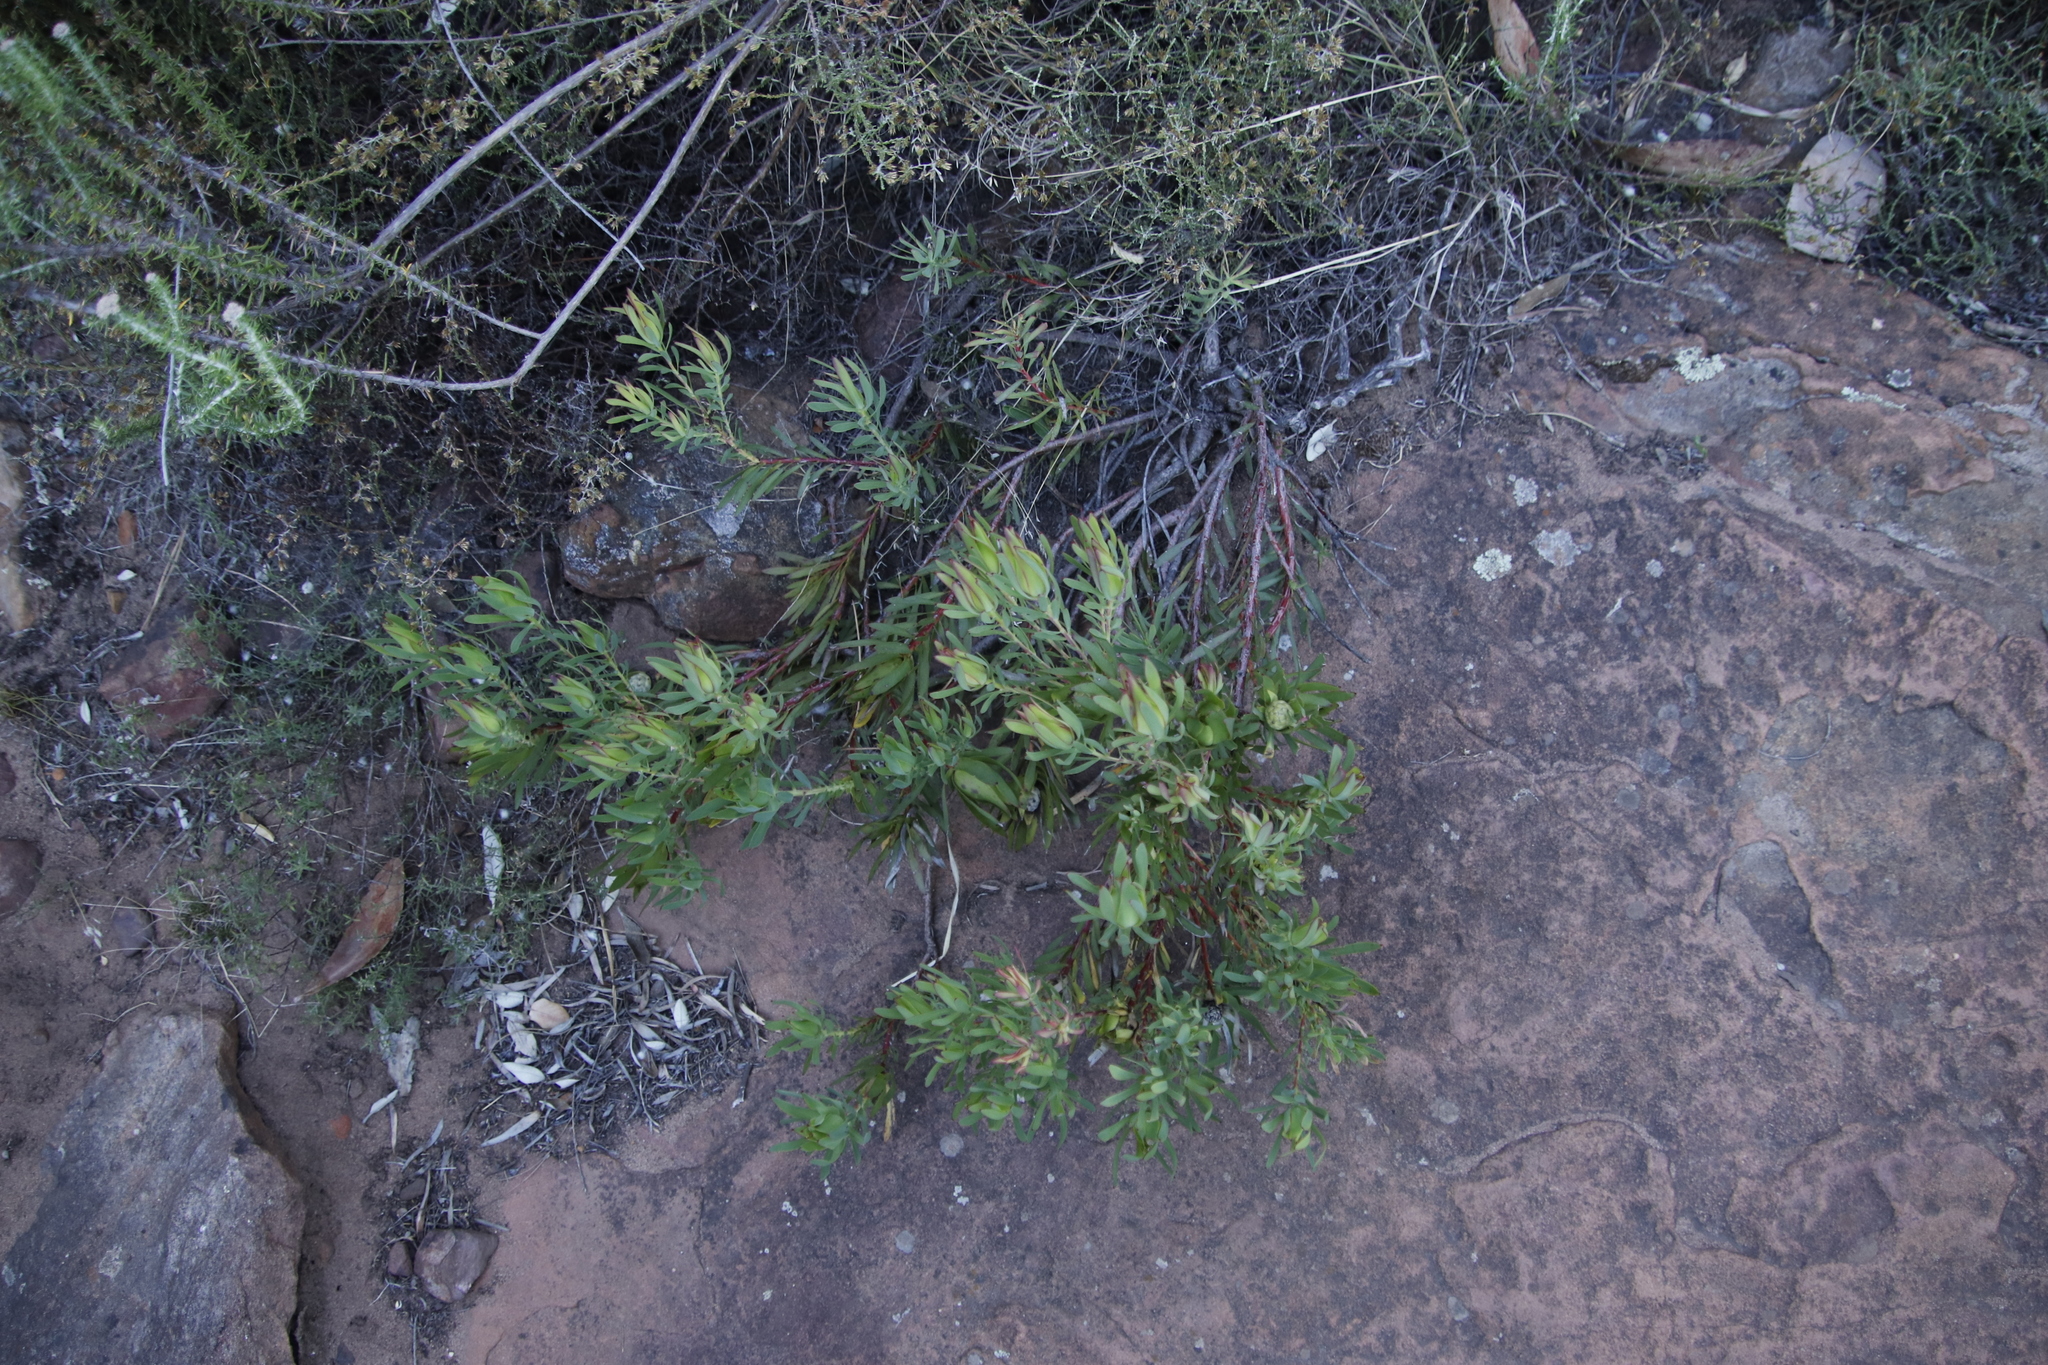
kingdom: Plantae
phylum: Tracheophyta
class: Magnoliopsida
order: Proteales
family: Proteaceae
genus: Leucadendron
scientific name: Leucadendron salignum
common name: Common sunshine conebush
